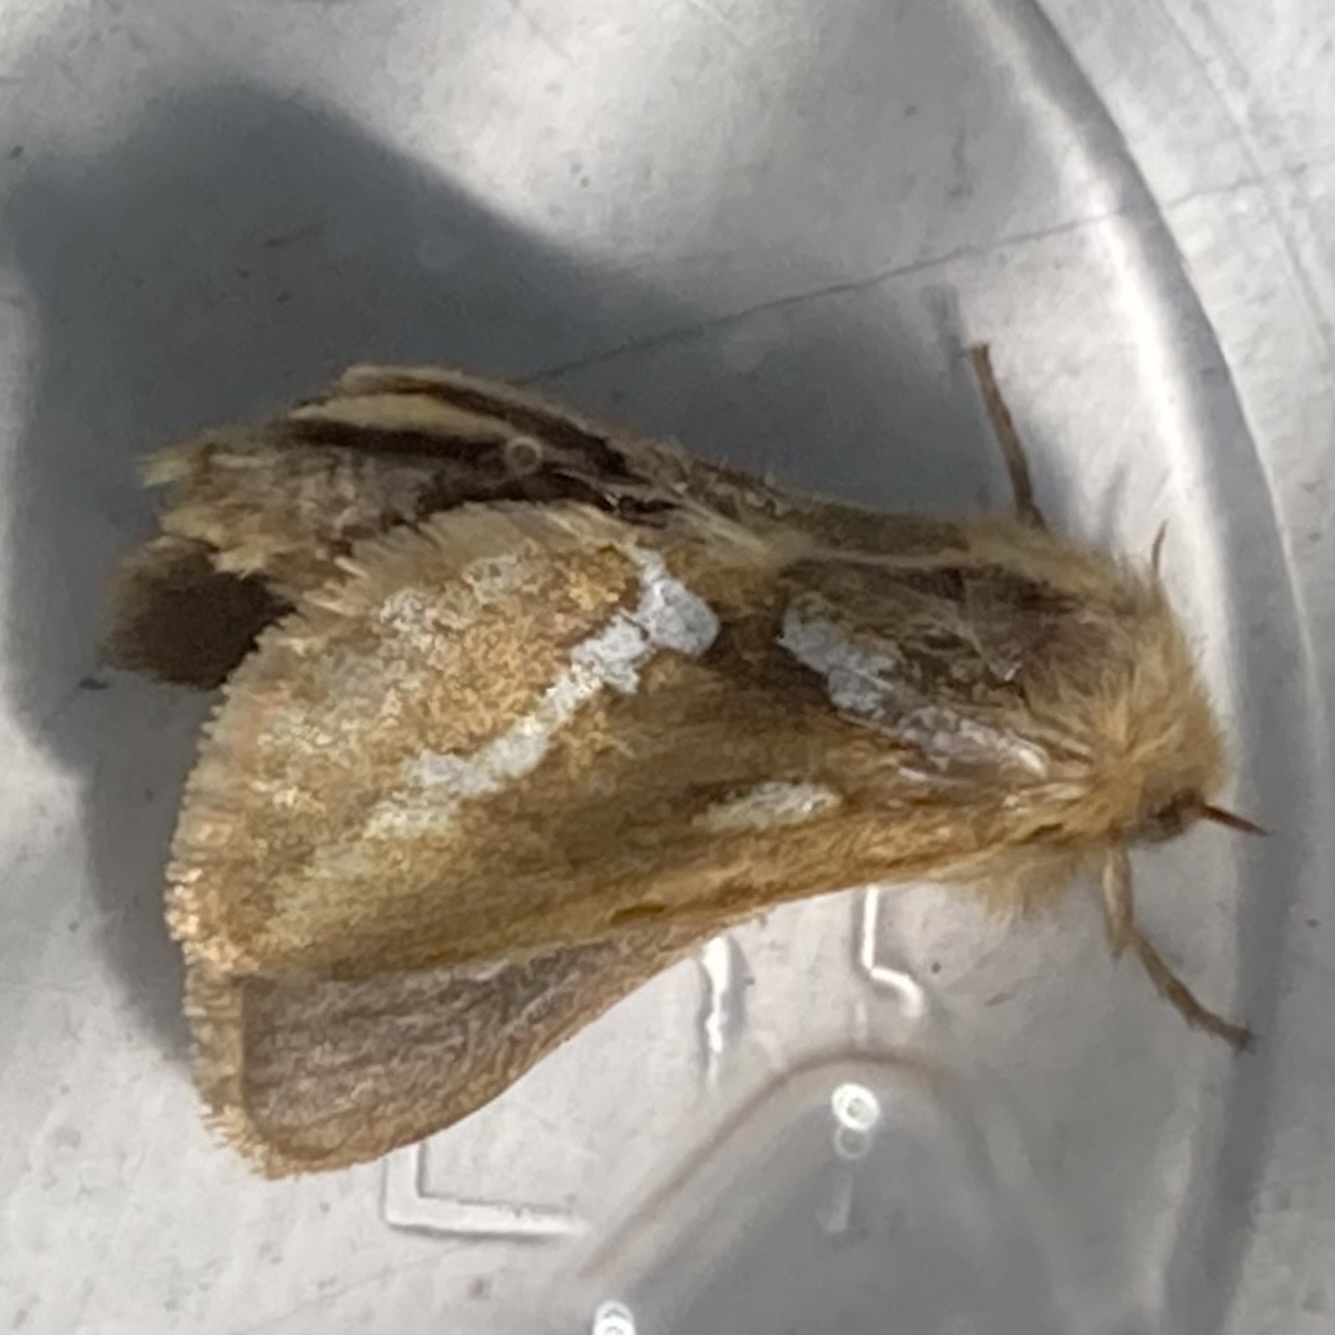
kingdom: Animalia
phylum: Arthropoda
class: Insecta
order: Lepidoptera
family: Hepialidae
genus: Korscheltellus
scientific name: Korscheltellus lupulina
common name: Common swift
